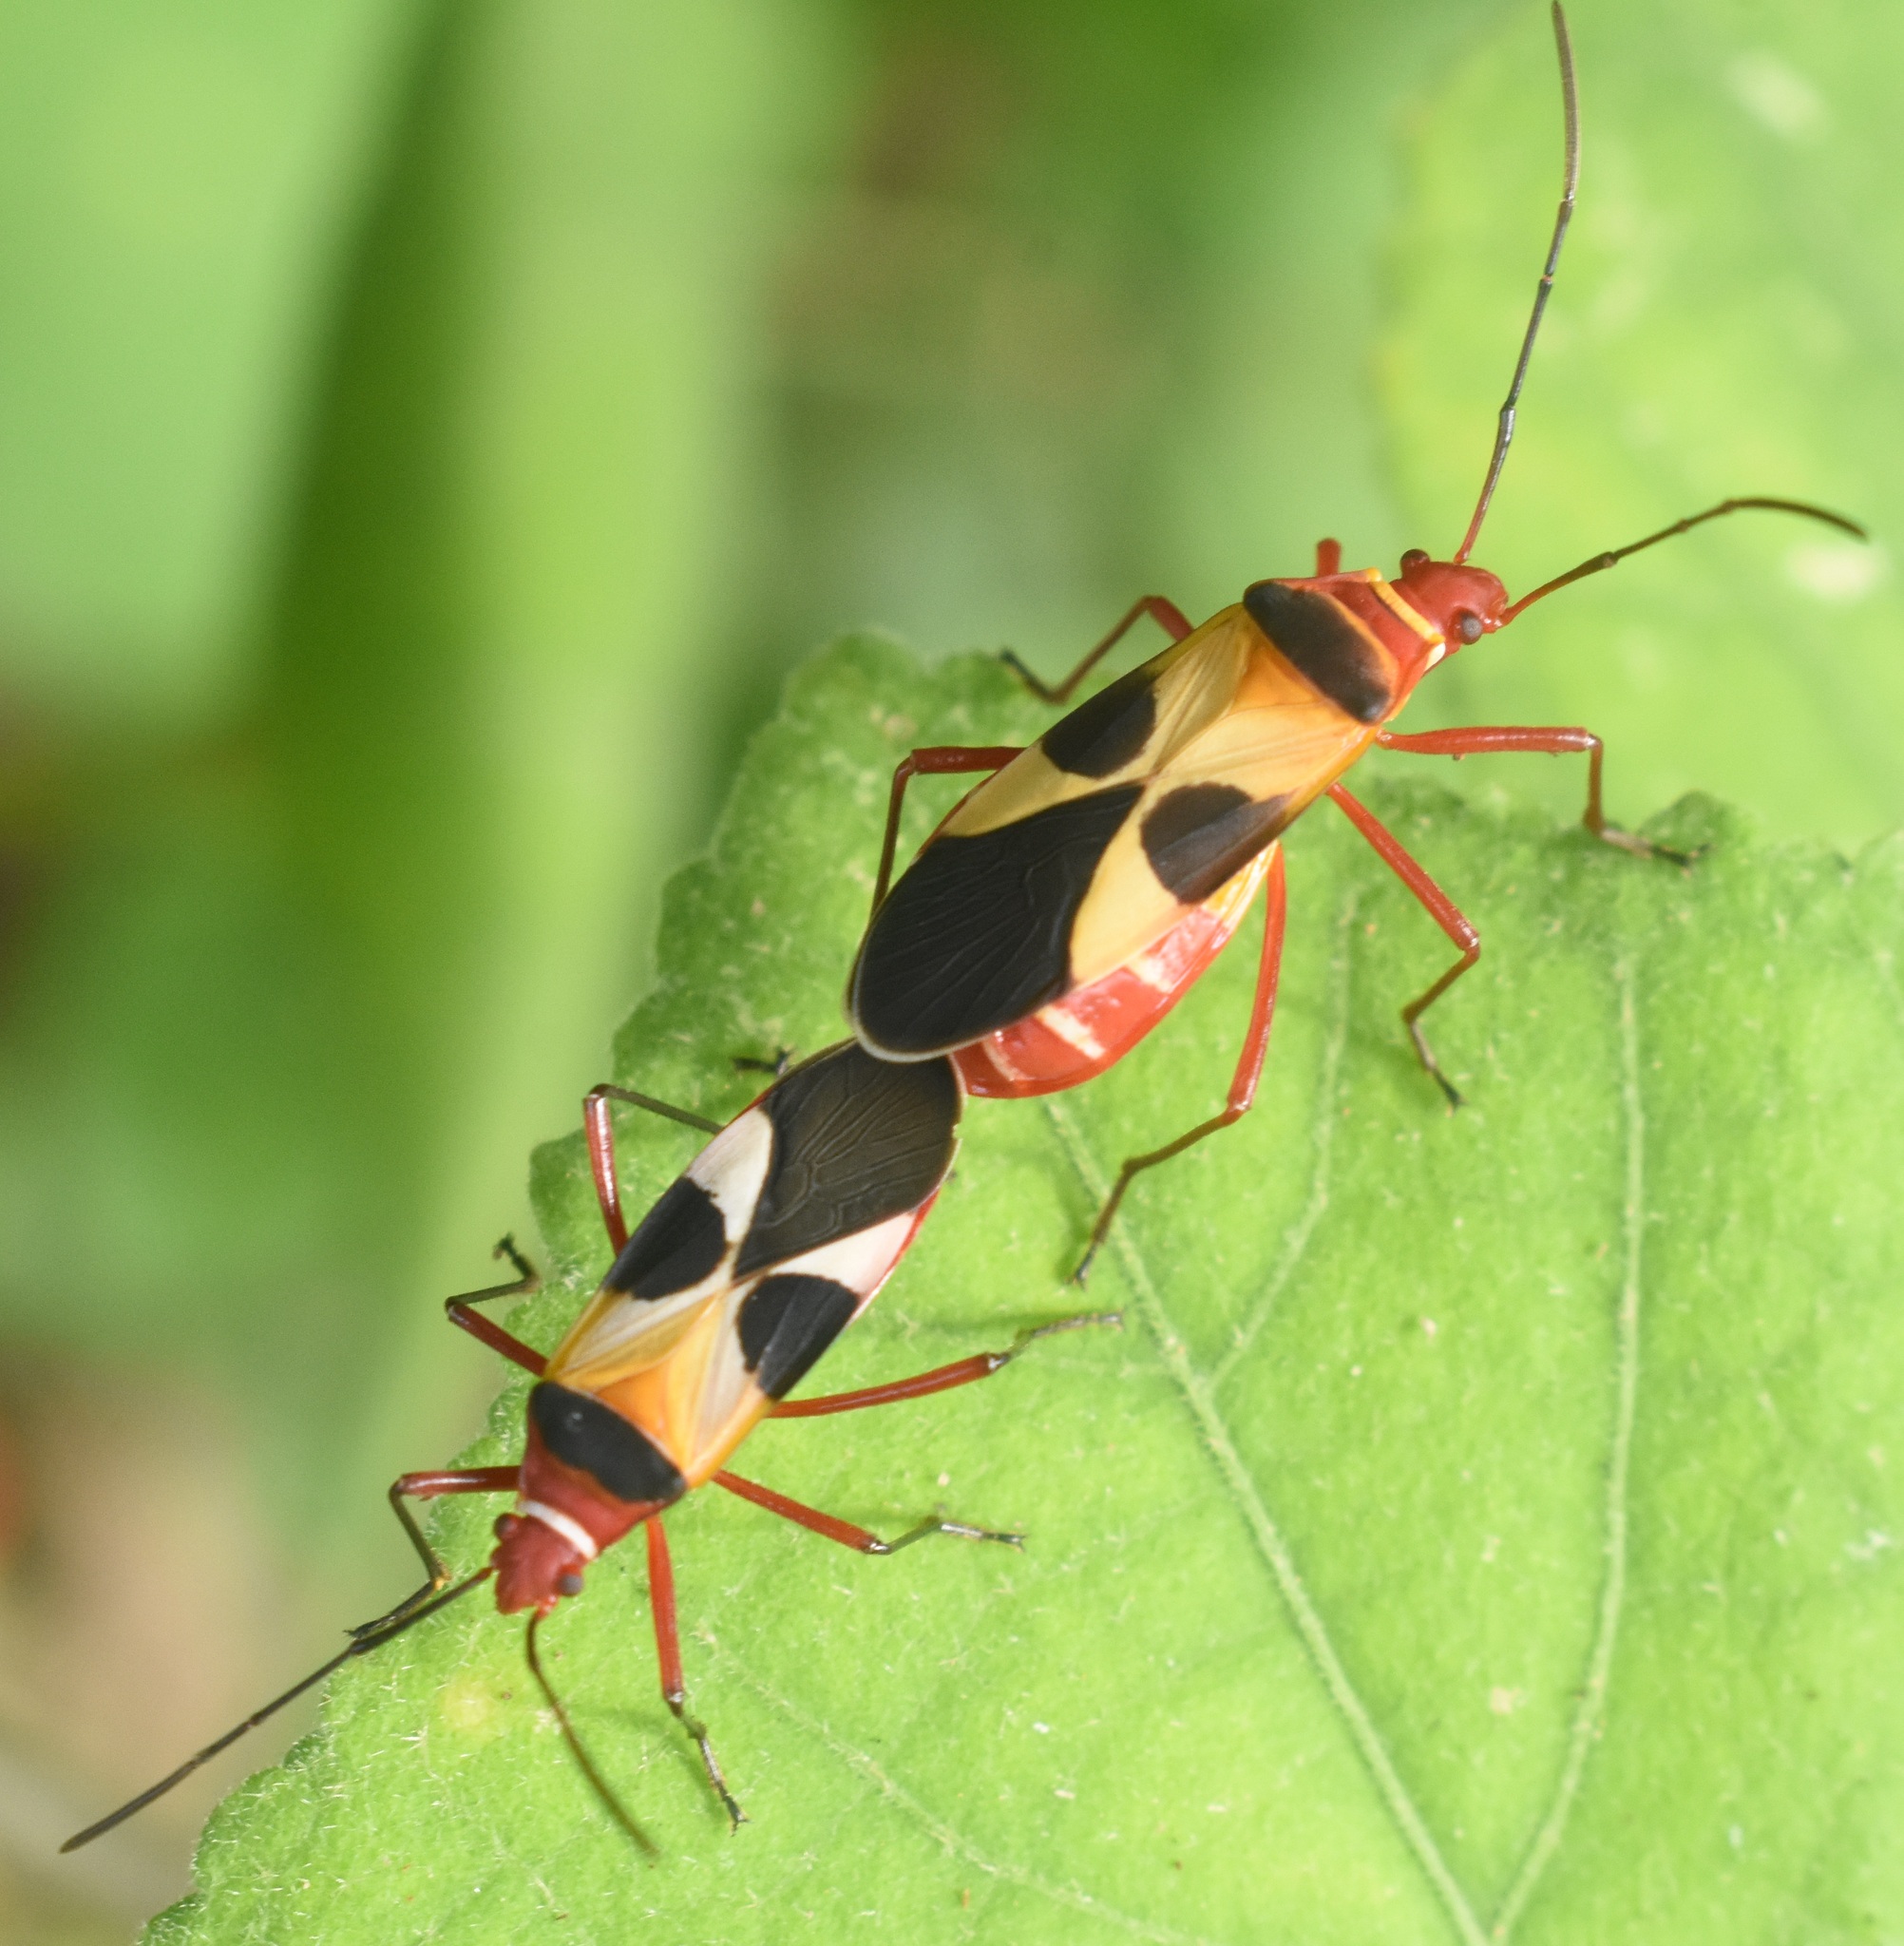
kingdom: Animalia
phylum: Arthropoda
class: Insecta
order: Hemiptera
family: Pyrrhocoridae
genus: Dysdercus
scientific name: Dysdercus concinnus
